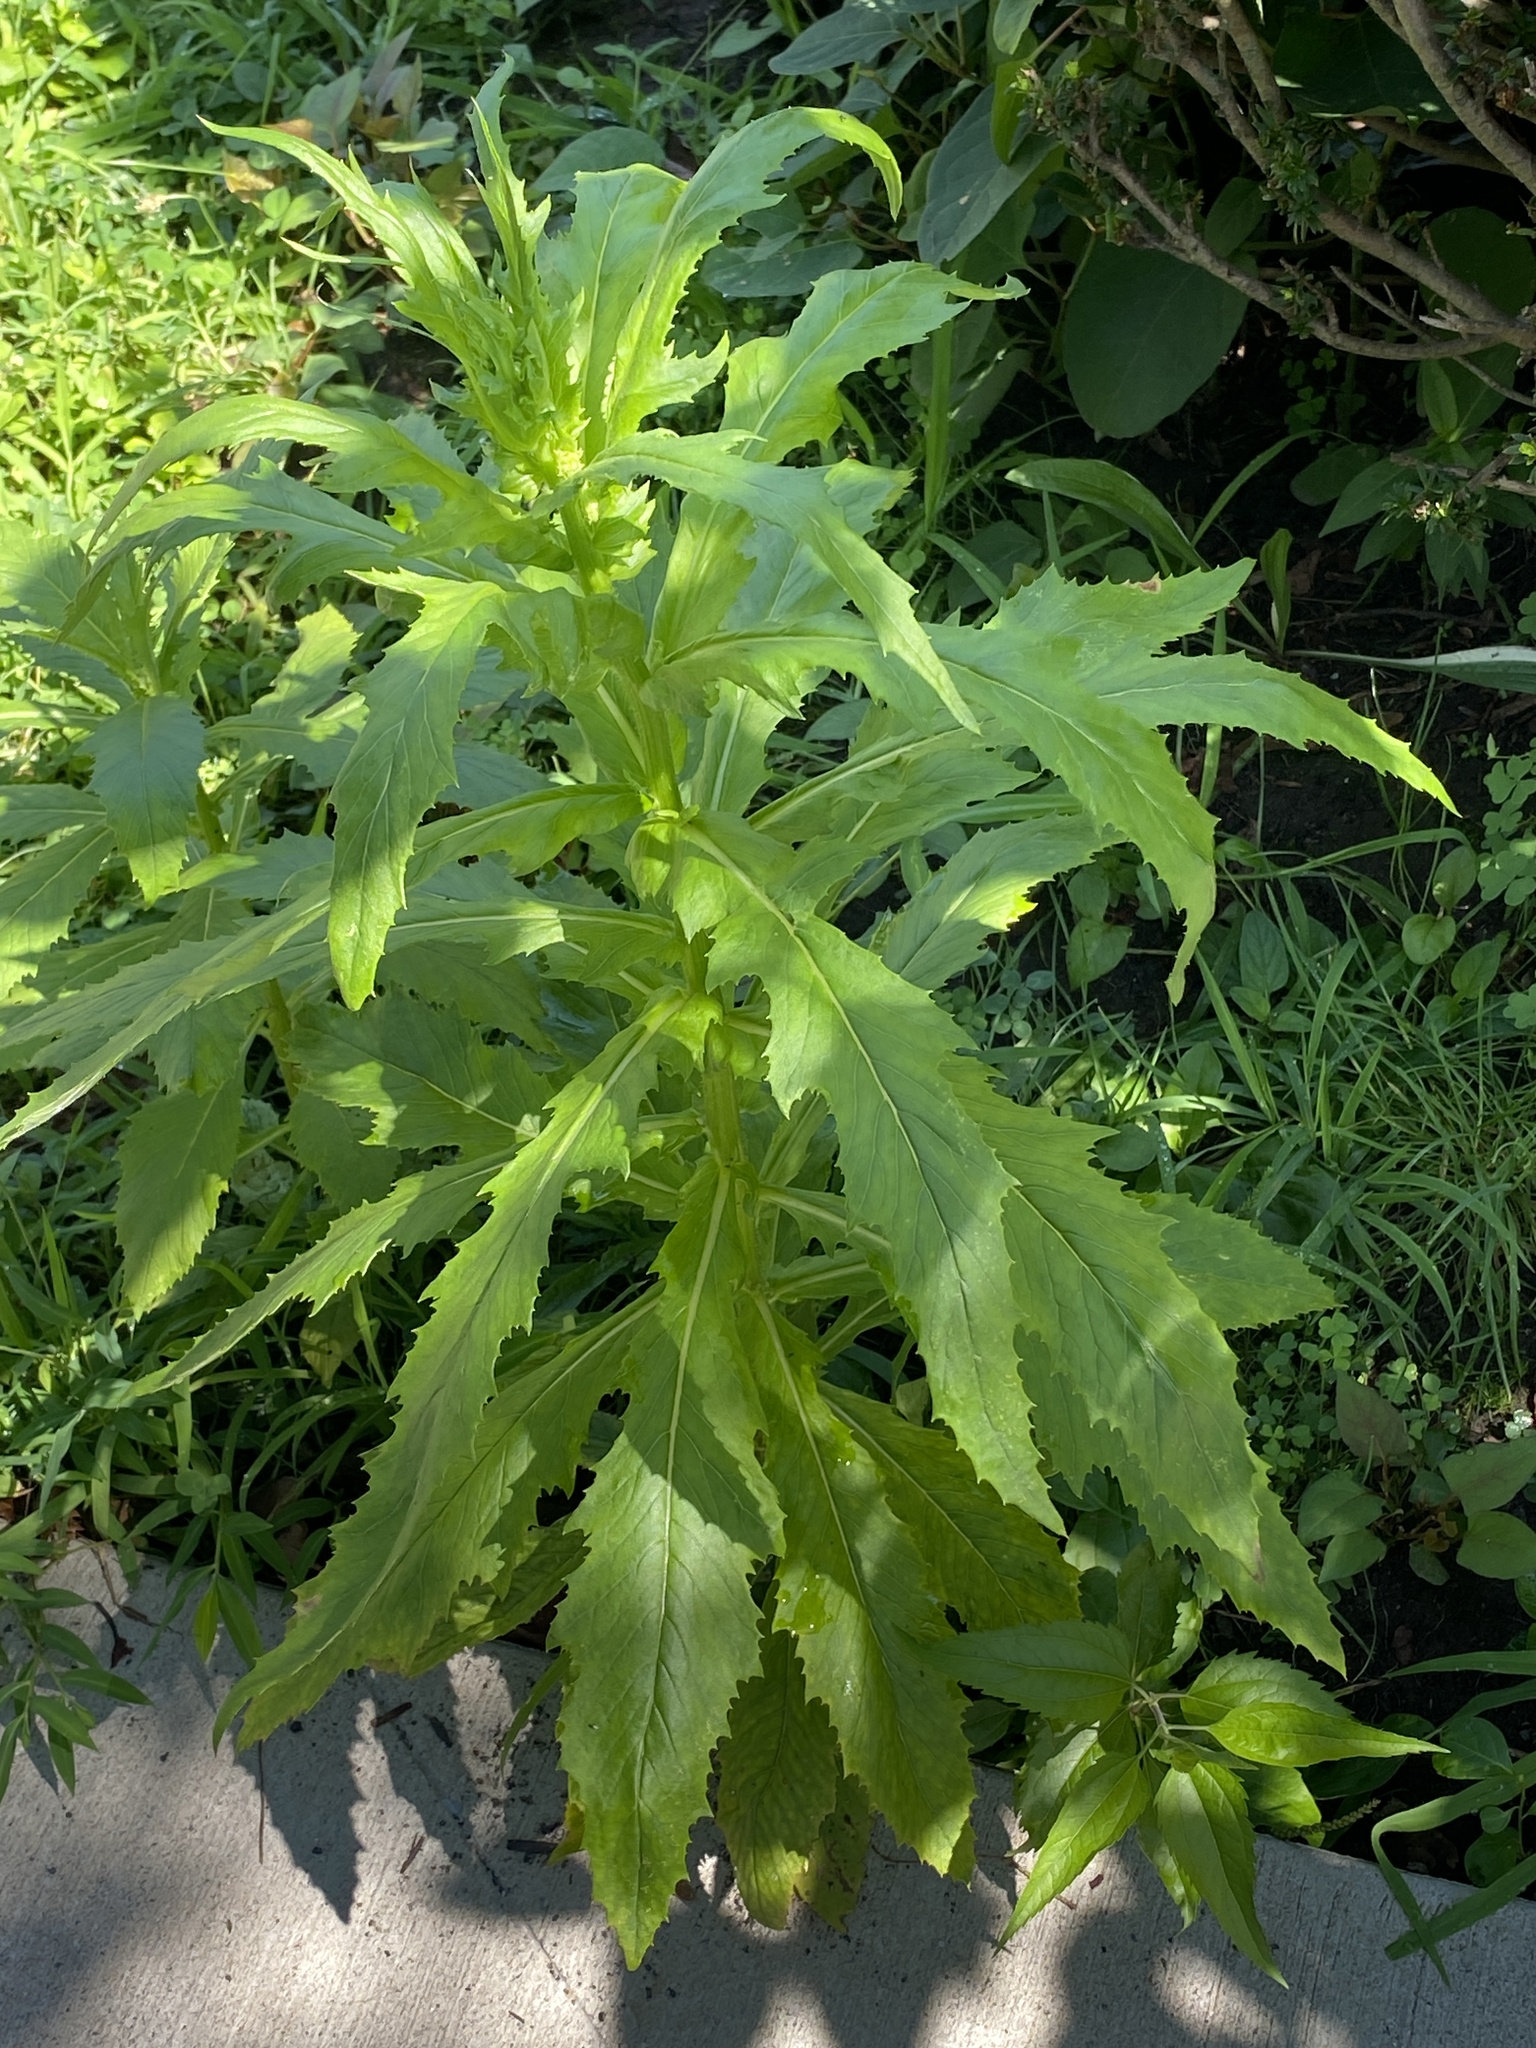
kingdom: Plantae
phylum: Tracheophyta
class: Magnoliopsida
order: Asterales
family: Asteraceae
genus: Erechtites
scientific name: Erechtites hieraciifolius
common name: American burnweed
